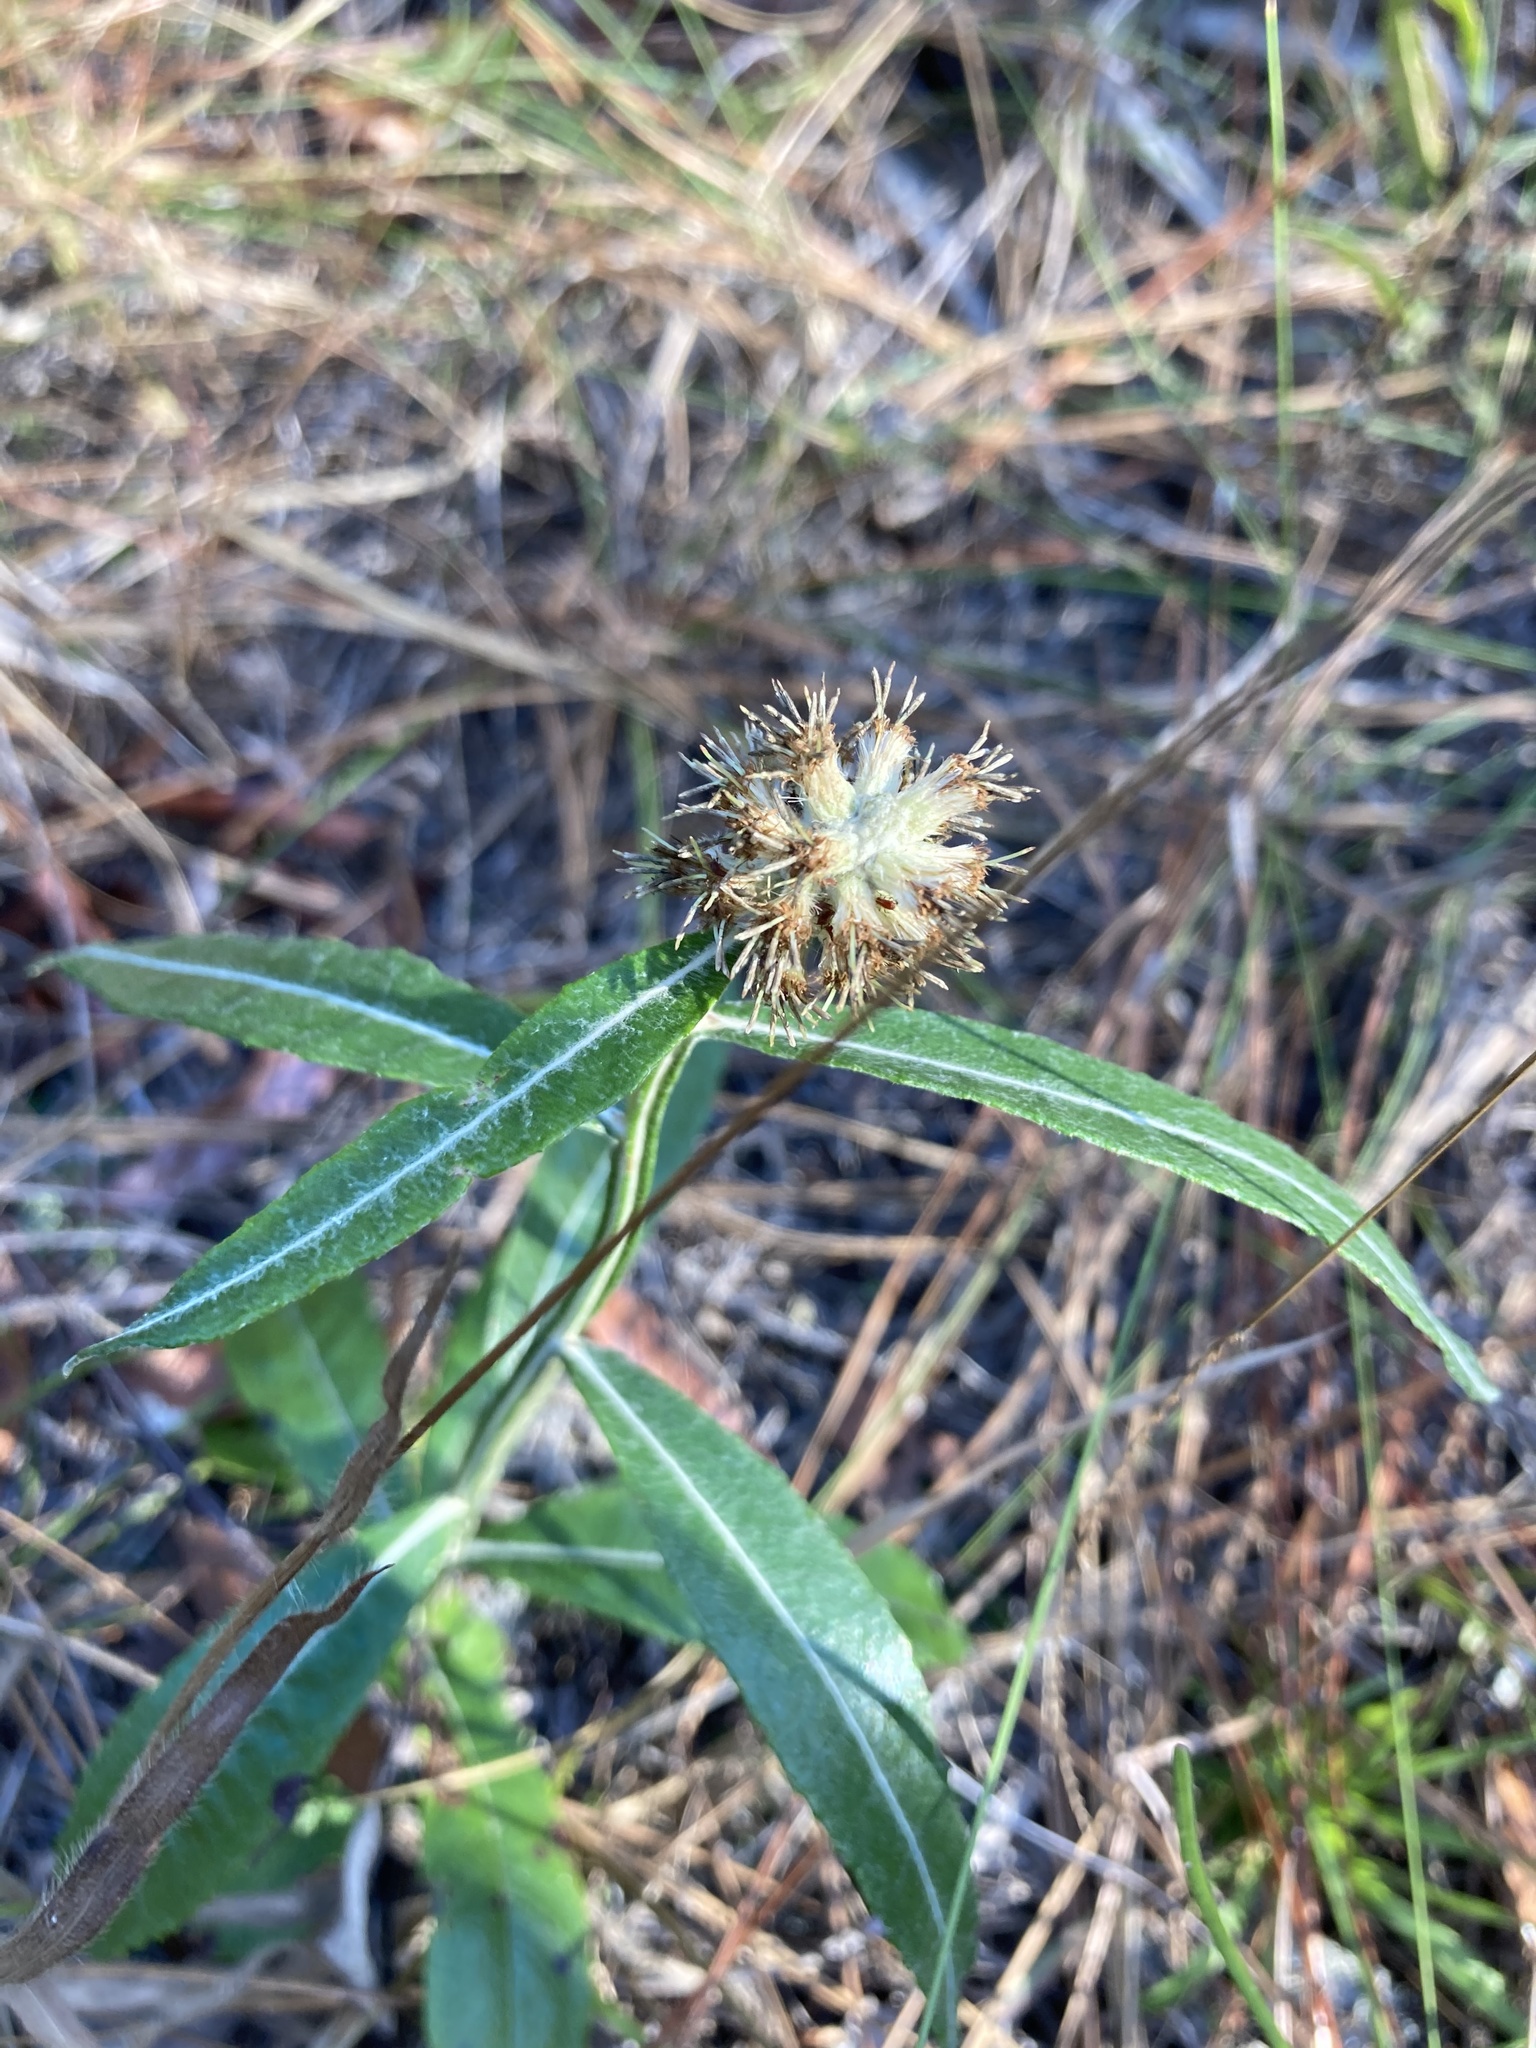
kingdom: Plantae
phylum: Tracheophyta
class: Magnoliopsida
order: Asterales
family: Asteraceae
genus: Pterocaulon
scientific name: Pterocaulon pycnostachyum
